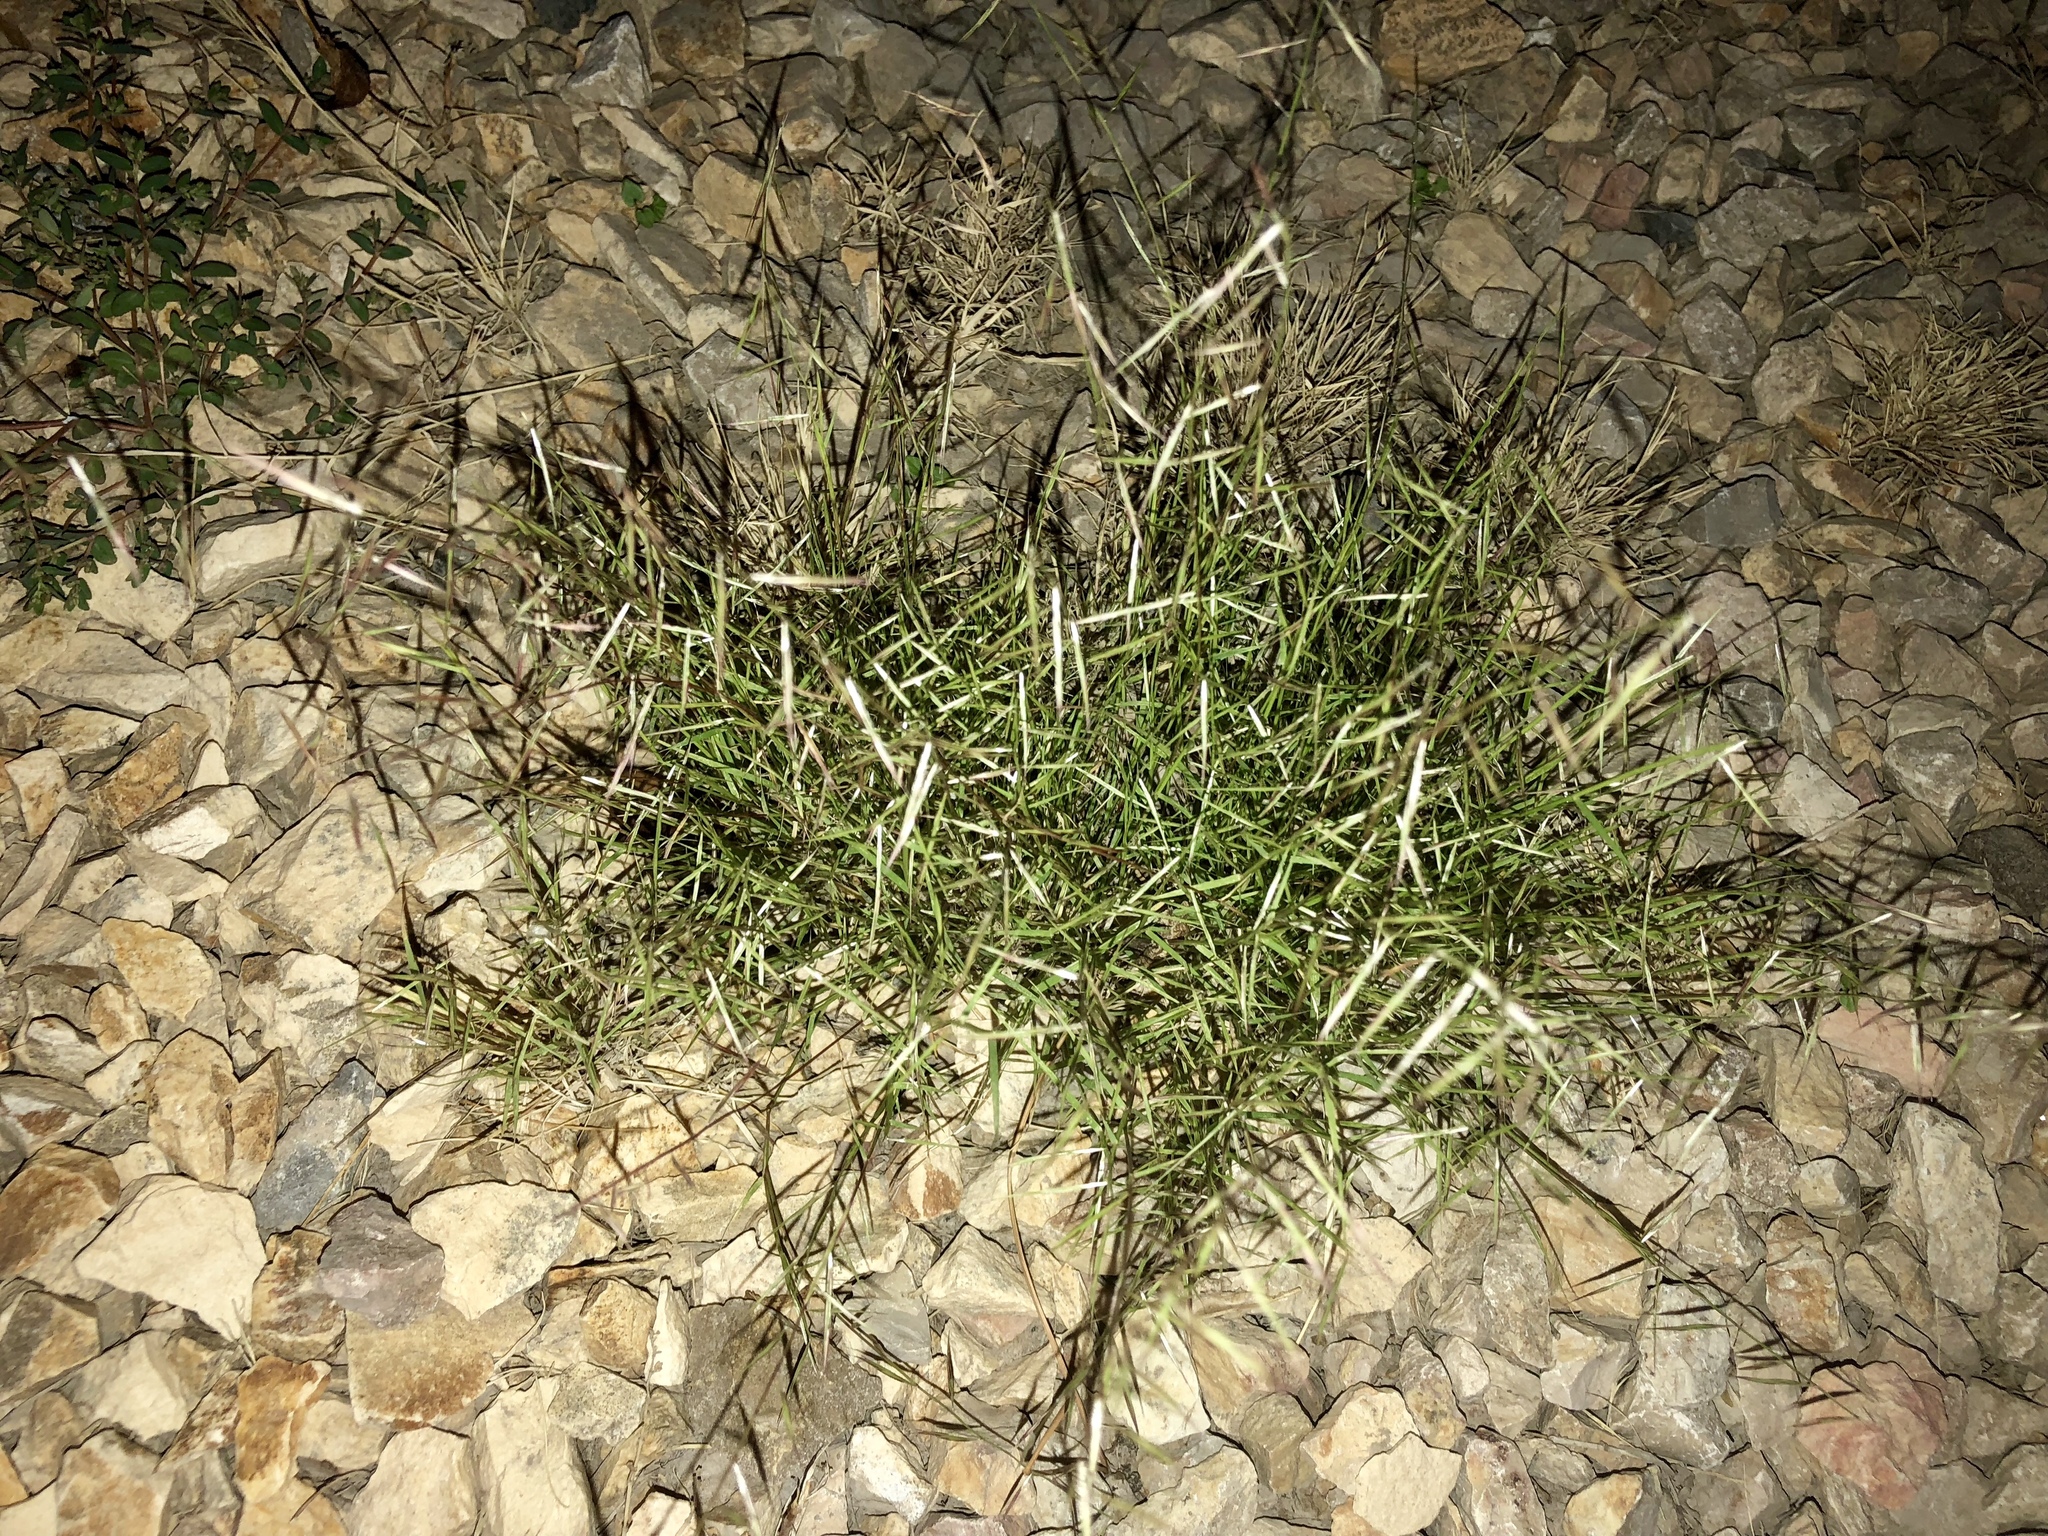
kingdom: Plantae
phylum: Tracheophyta
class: Liliopsida
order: Poales
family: Poaceae
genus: Bouteloua
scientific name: Bouteloua aristidoides
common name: Needle grama
